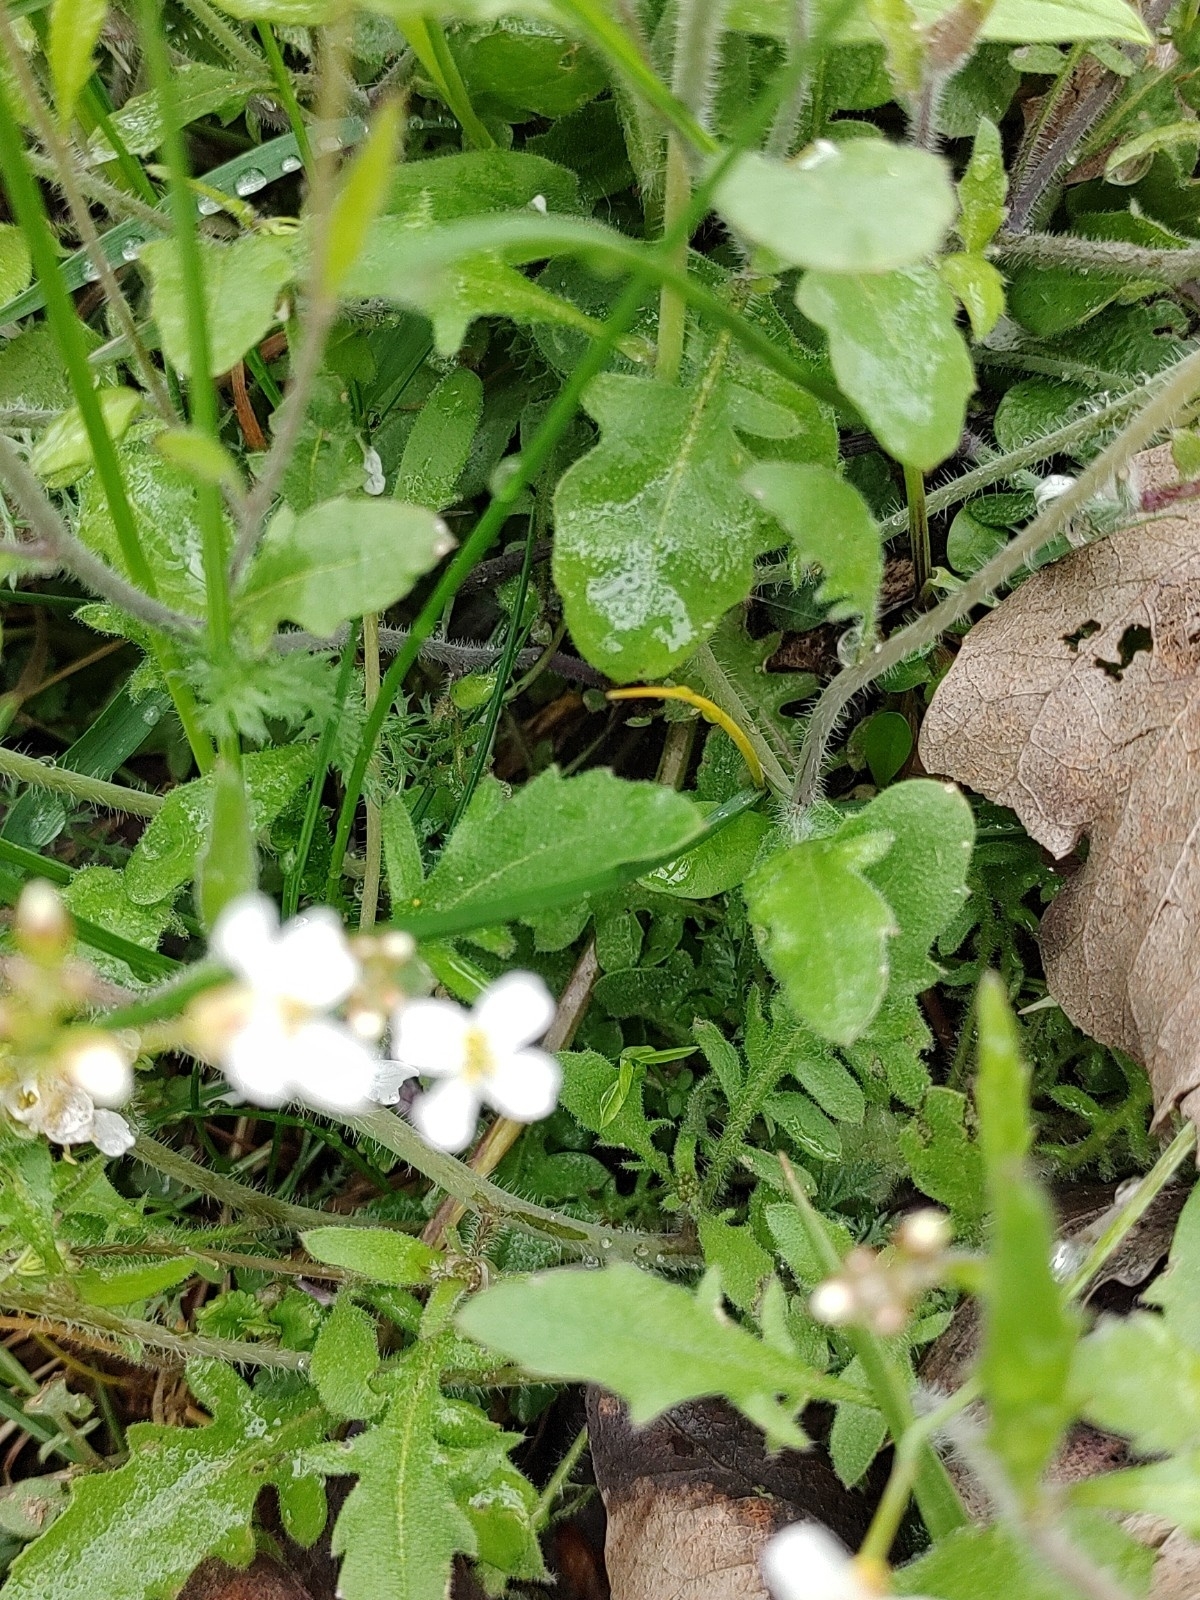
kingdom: Plantae
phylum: Tracheophyta
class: Magnoliopsida
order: Brassicales
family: Brassicaceae
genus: Arabidopsis
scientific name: Arabidopsis arenosa
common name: Sand rock-cress
